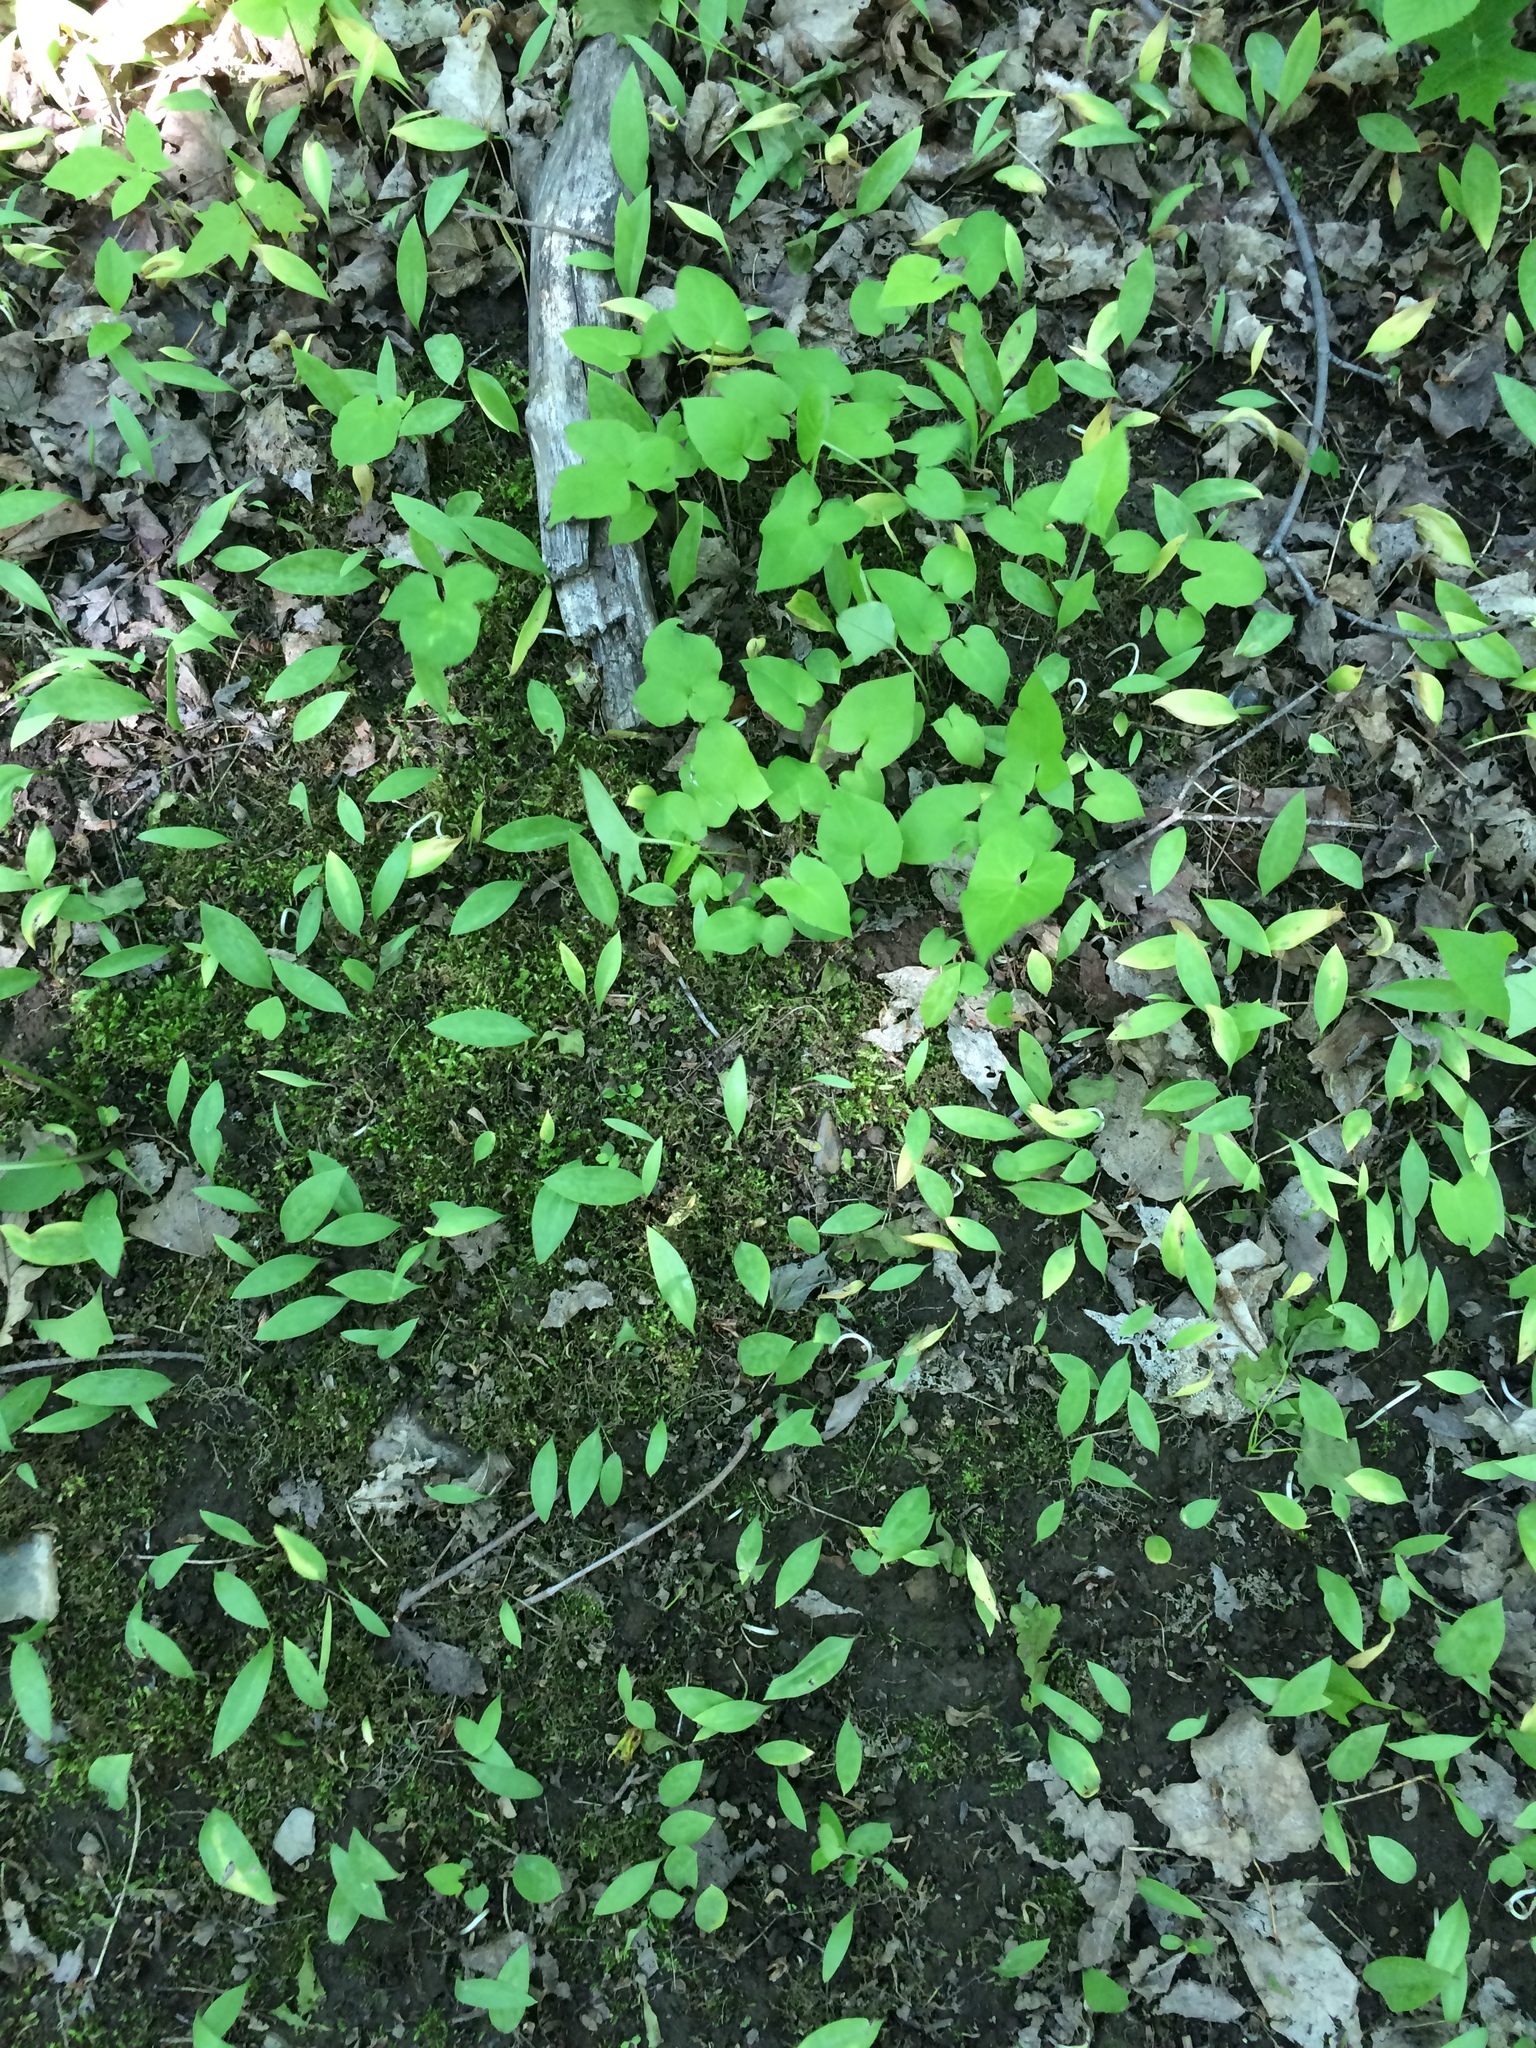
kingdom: Plantae
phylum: Tracheophyta
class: Liliopsida
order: Liliales
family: Liliaceae
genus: Erythronium
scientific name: Erythronium americanum
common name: Yellow adder's-tongue
